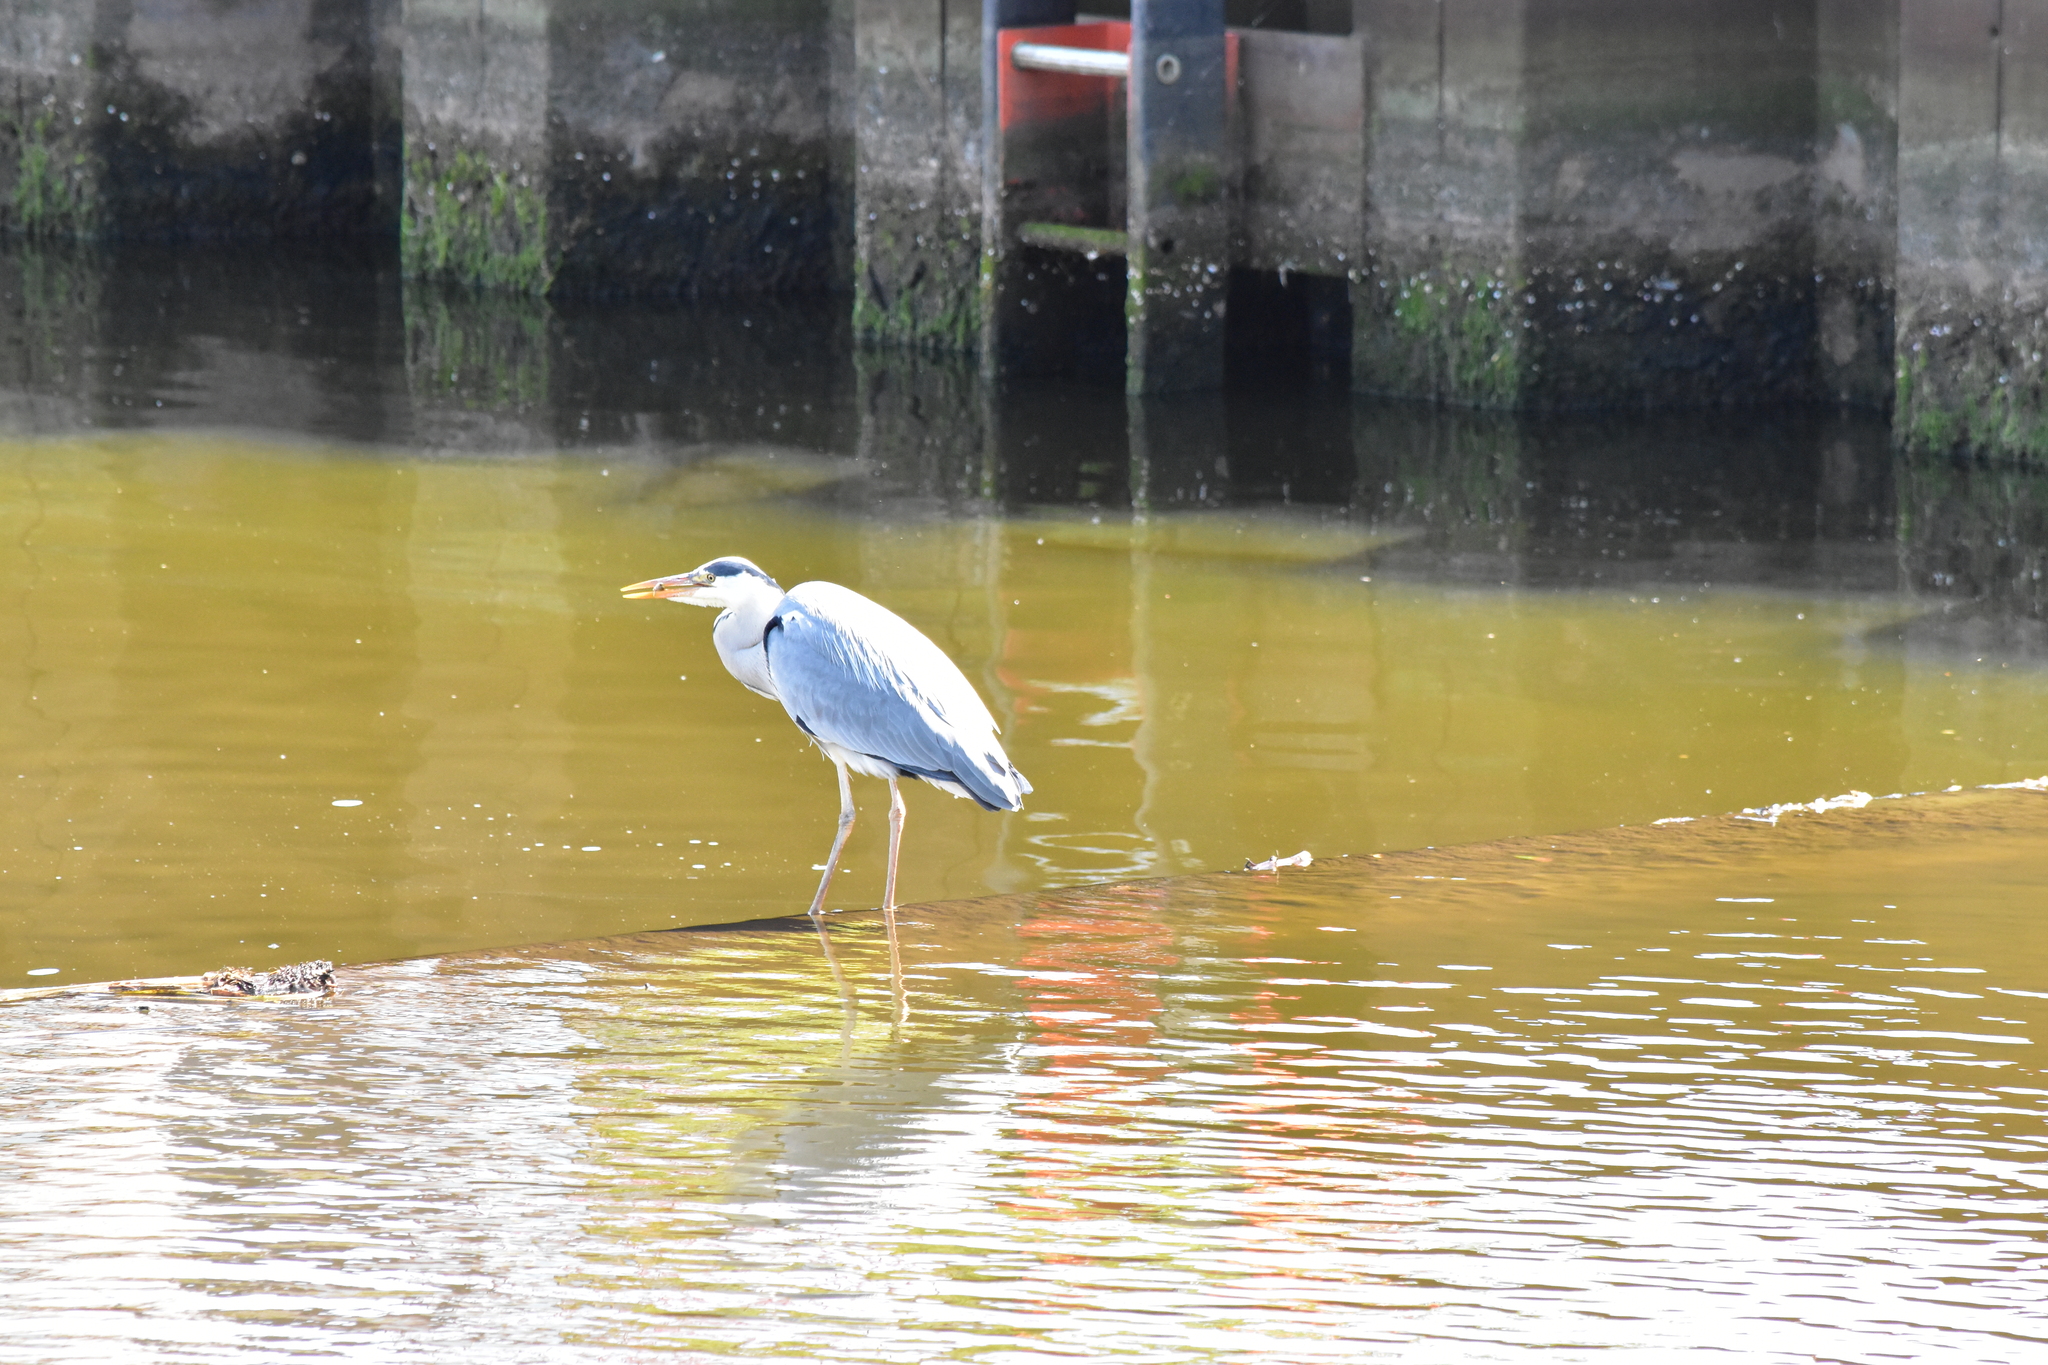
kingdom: Animalia
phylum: Chordata
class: Aves
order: Pelecaniformes
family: Ardeidae
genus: Ardea
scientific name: Ardea cinerea
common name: Grey heron
